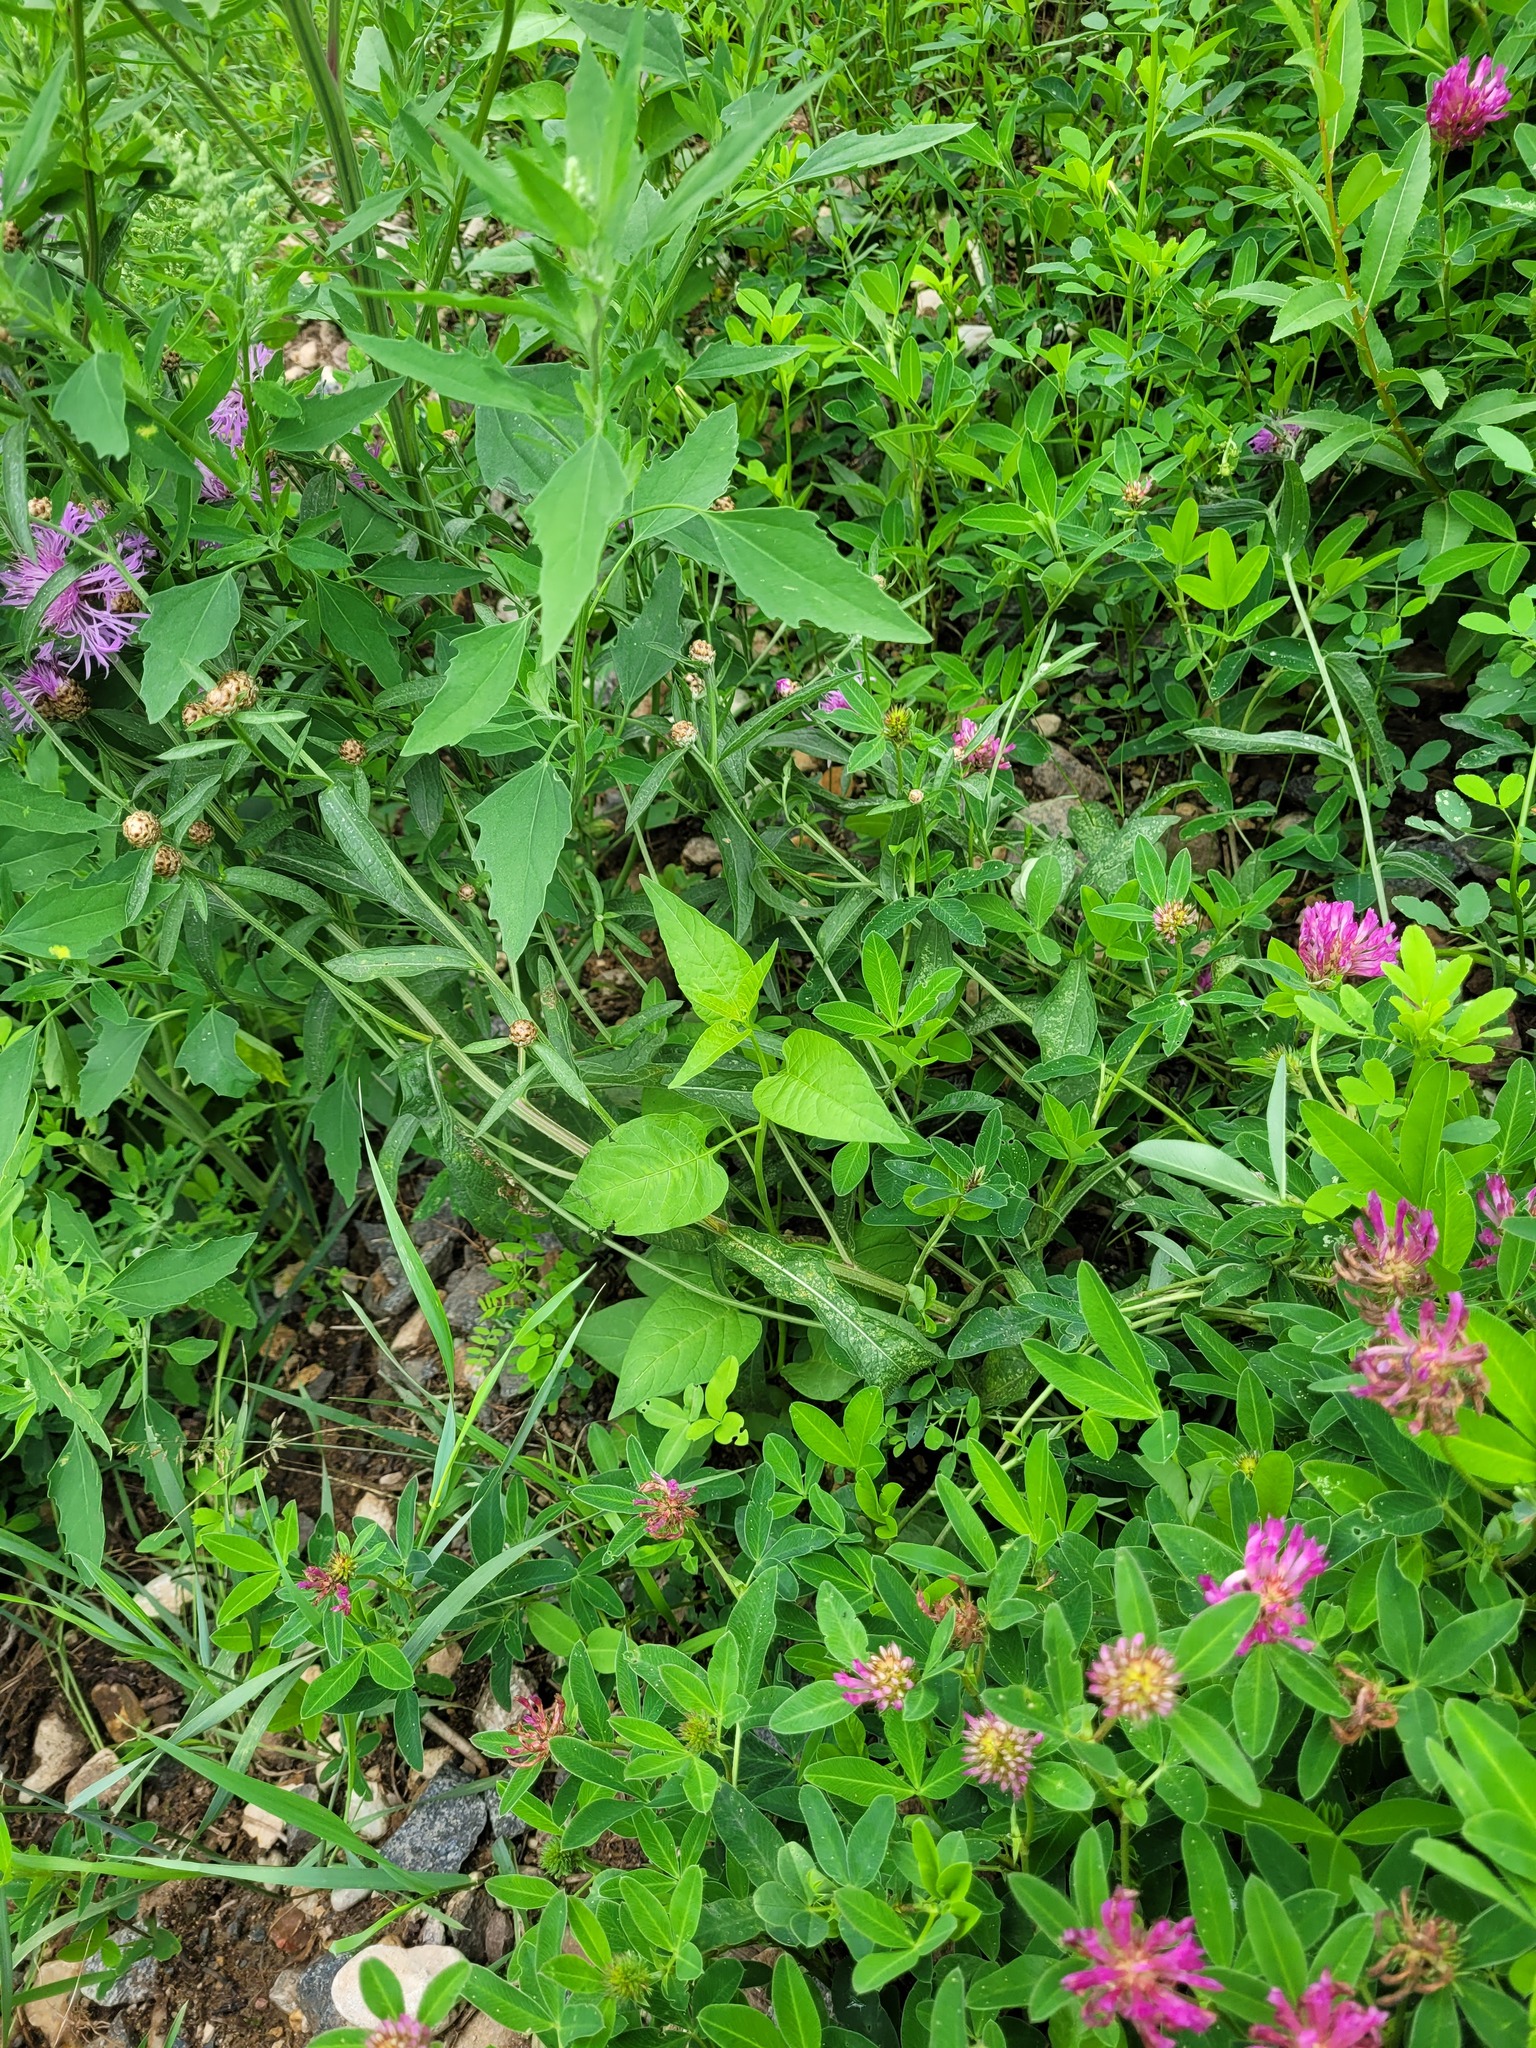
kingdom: Plantae
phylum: Tracheophyta
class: Magnoliopsida
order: Solanales
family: Solanaceae
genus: Solanum
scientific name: Solanum dulcamara
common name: Climbing nightshade
